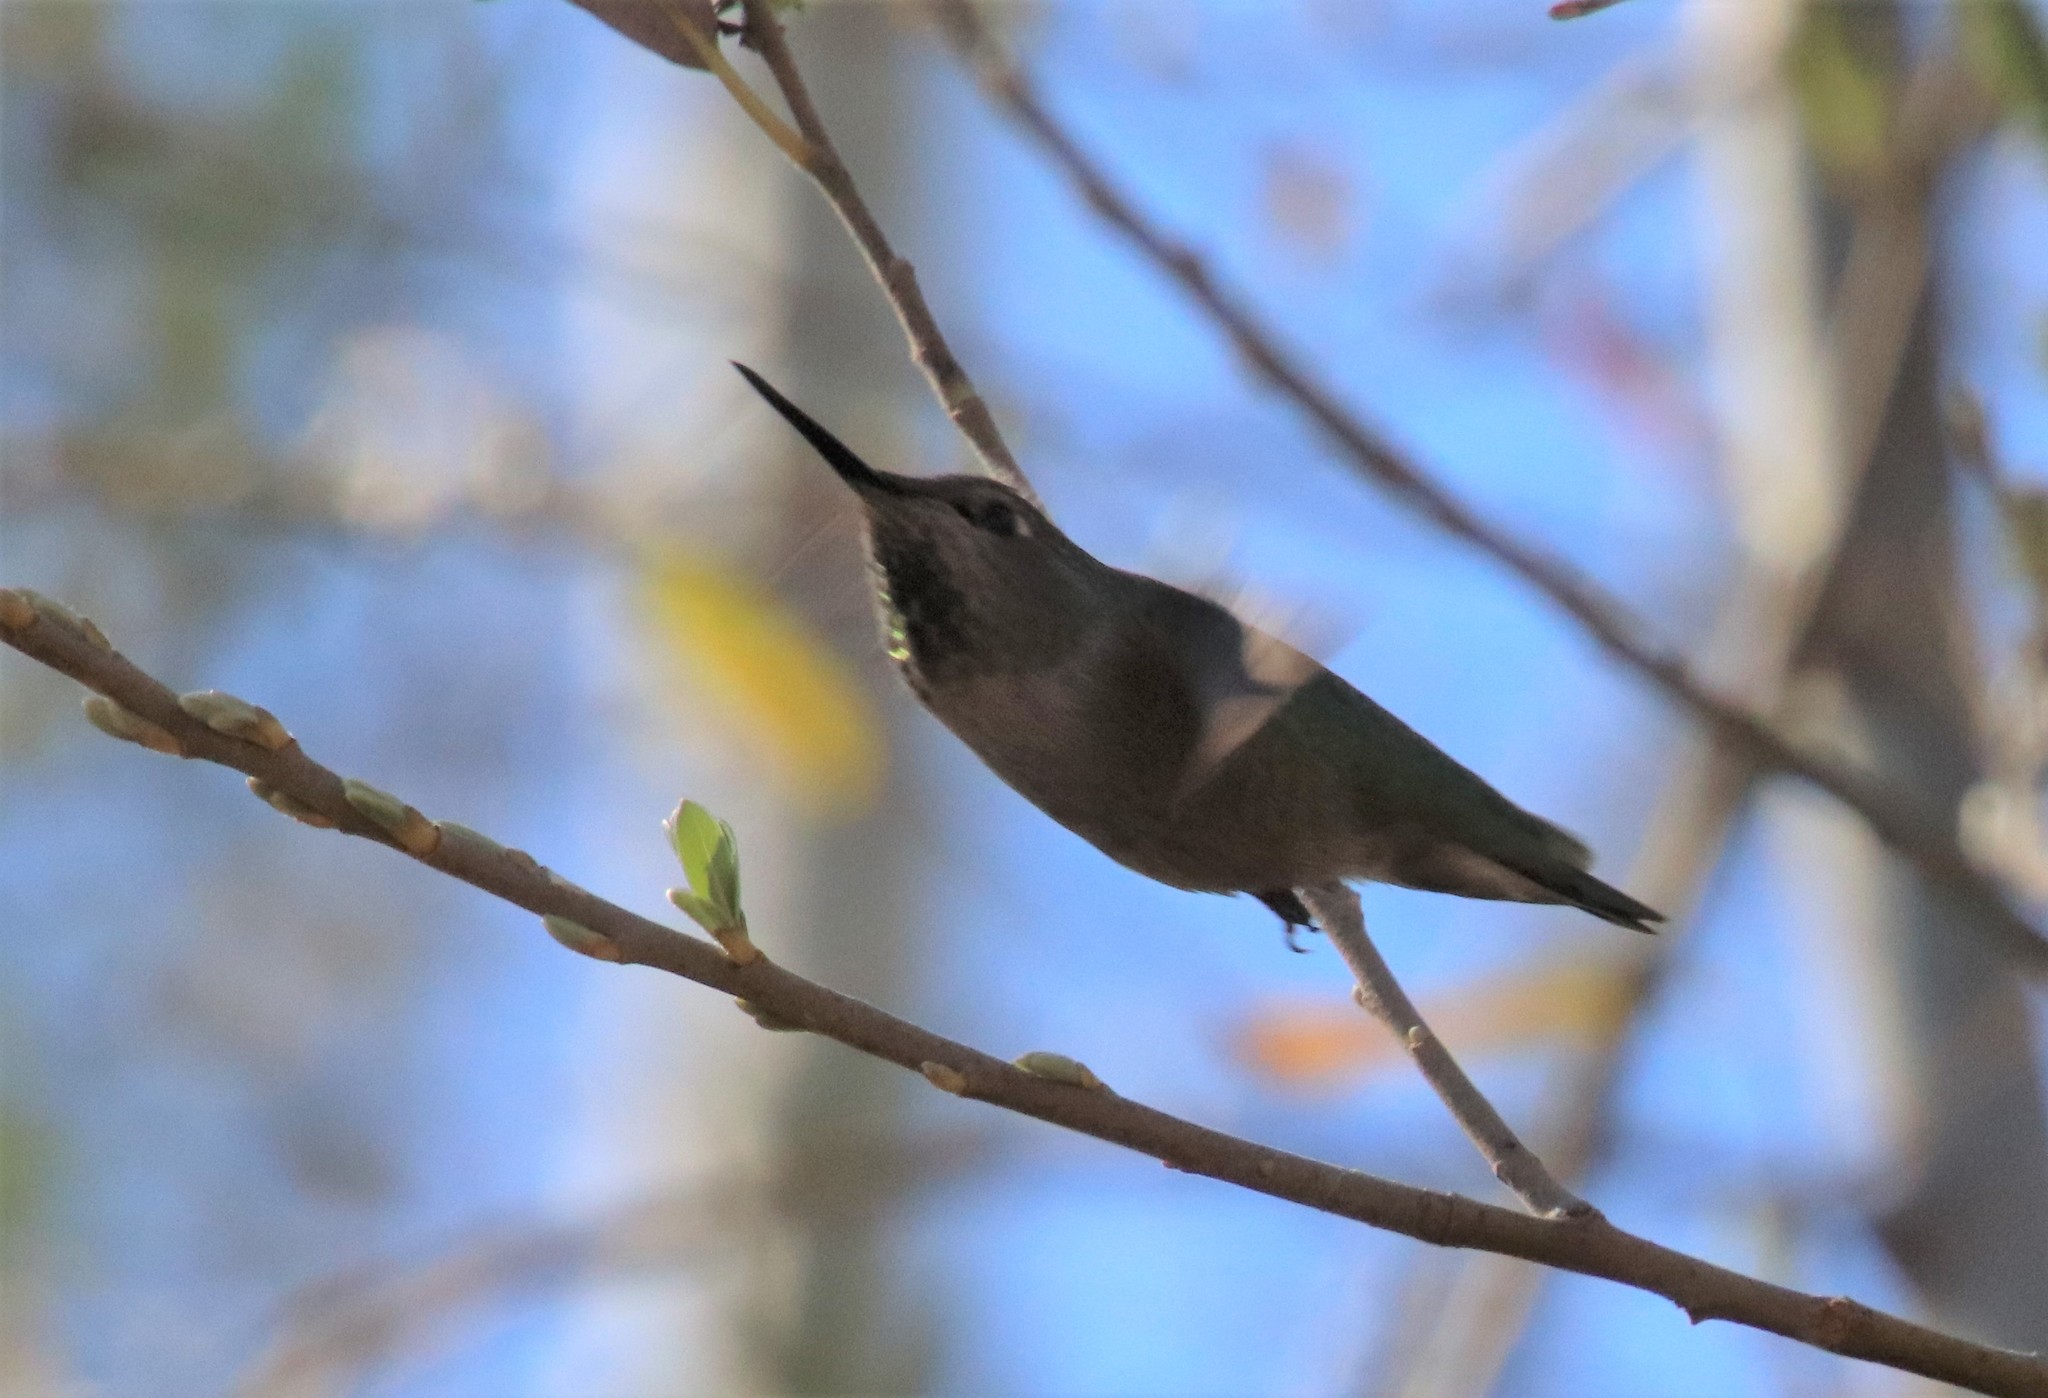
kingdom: Animalia
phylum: Chordata
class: Aves
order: Apodiformes
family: Trochilidae
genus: Calypte
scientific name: Calypte anna
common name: Anna's hummingbird
